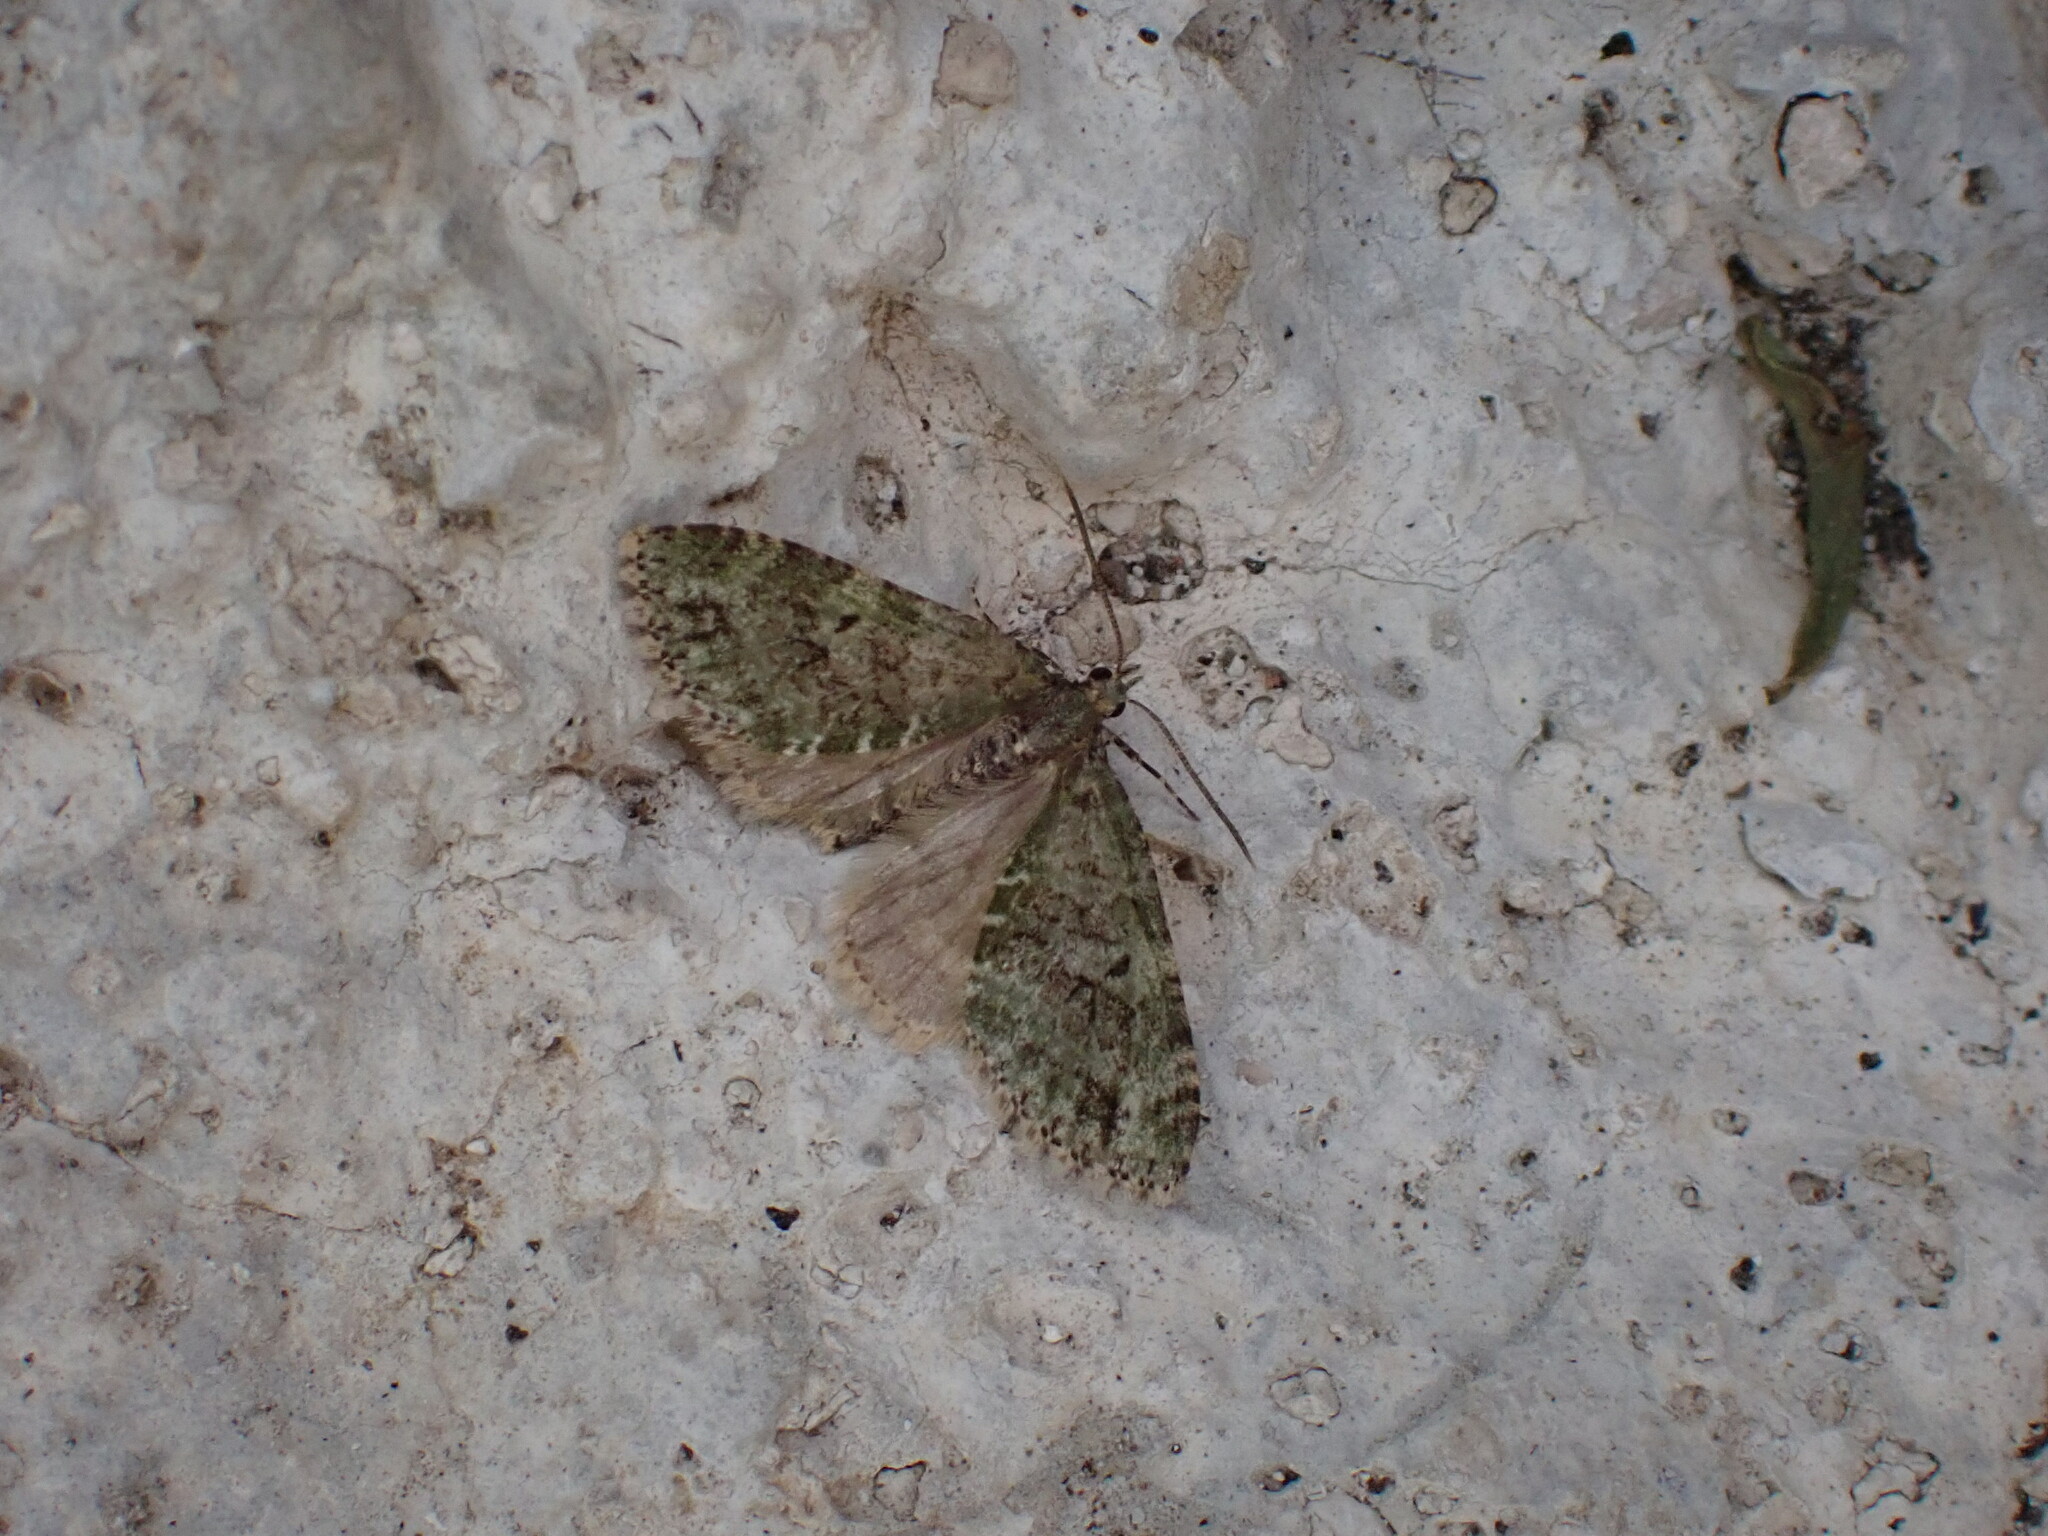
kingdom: Animalia
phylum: Arthropoda
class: Insecta
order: Lepidoptera
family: Geometridae
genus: Episauris
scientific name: Episauris kiliani
